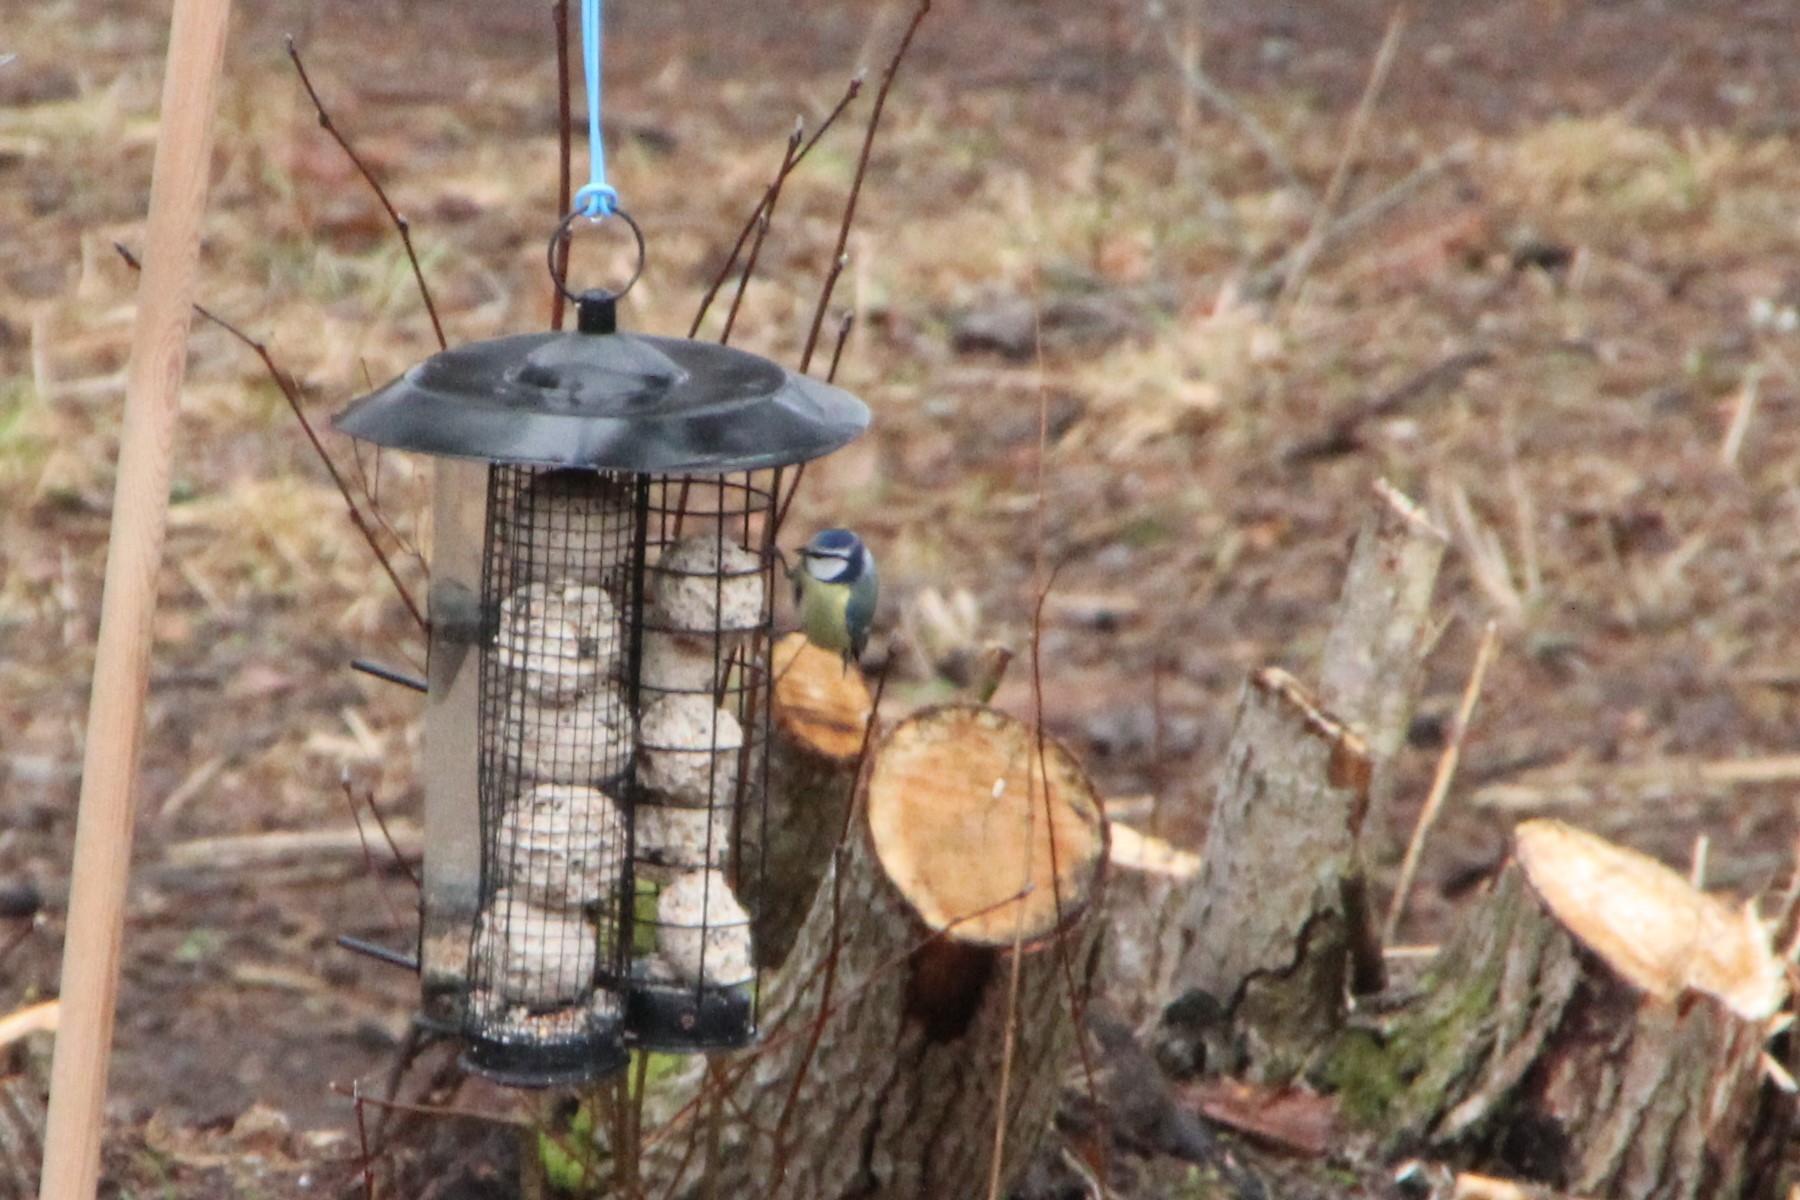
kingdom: Animalia
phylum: Chordata
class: Aves
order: Passeriformes
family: Paridae
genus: Cyanistes
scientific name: Cyanistes caeruleus
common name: Eurasian blue tit
